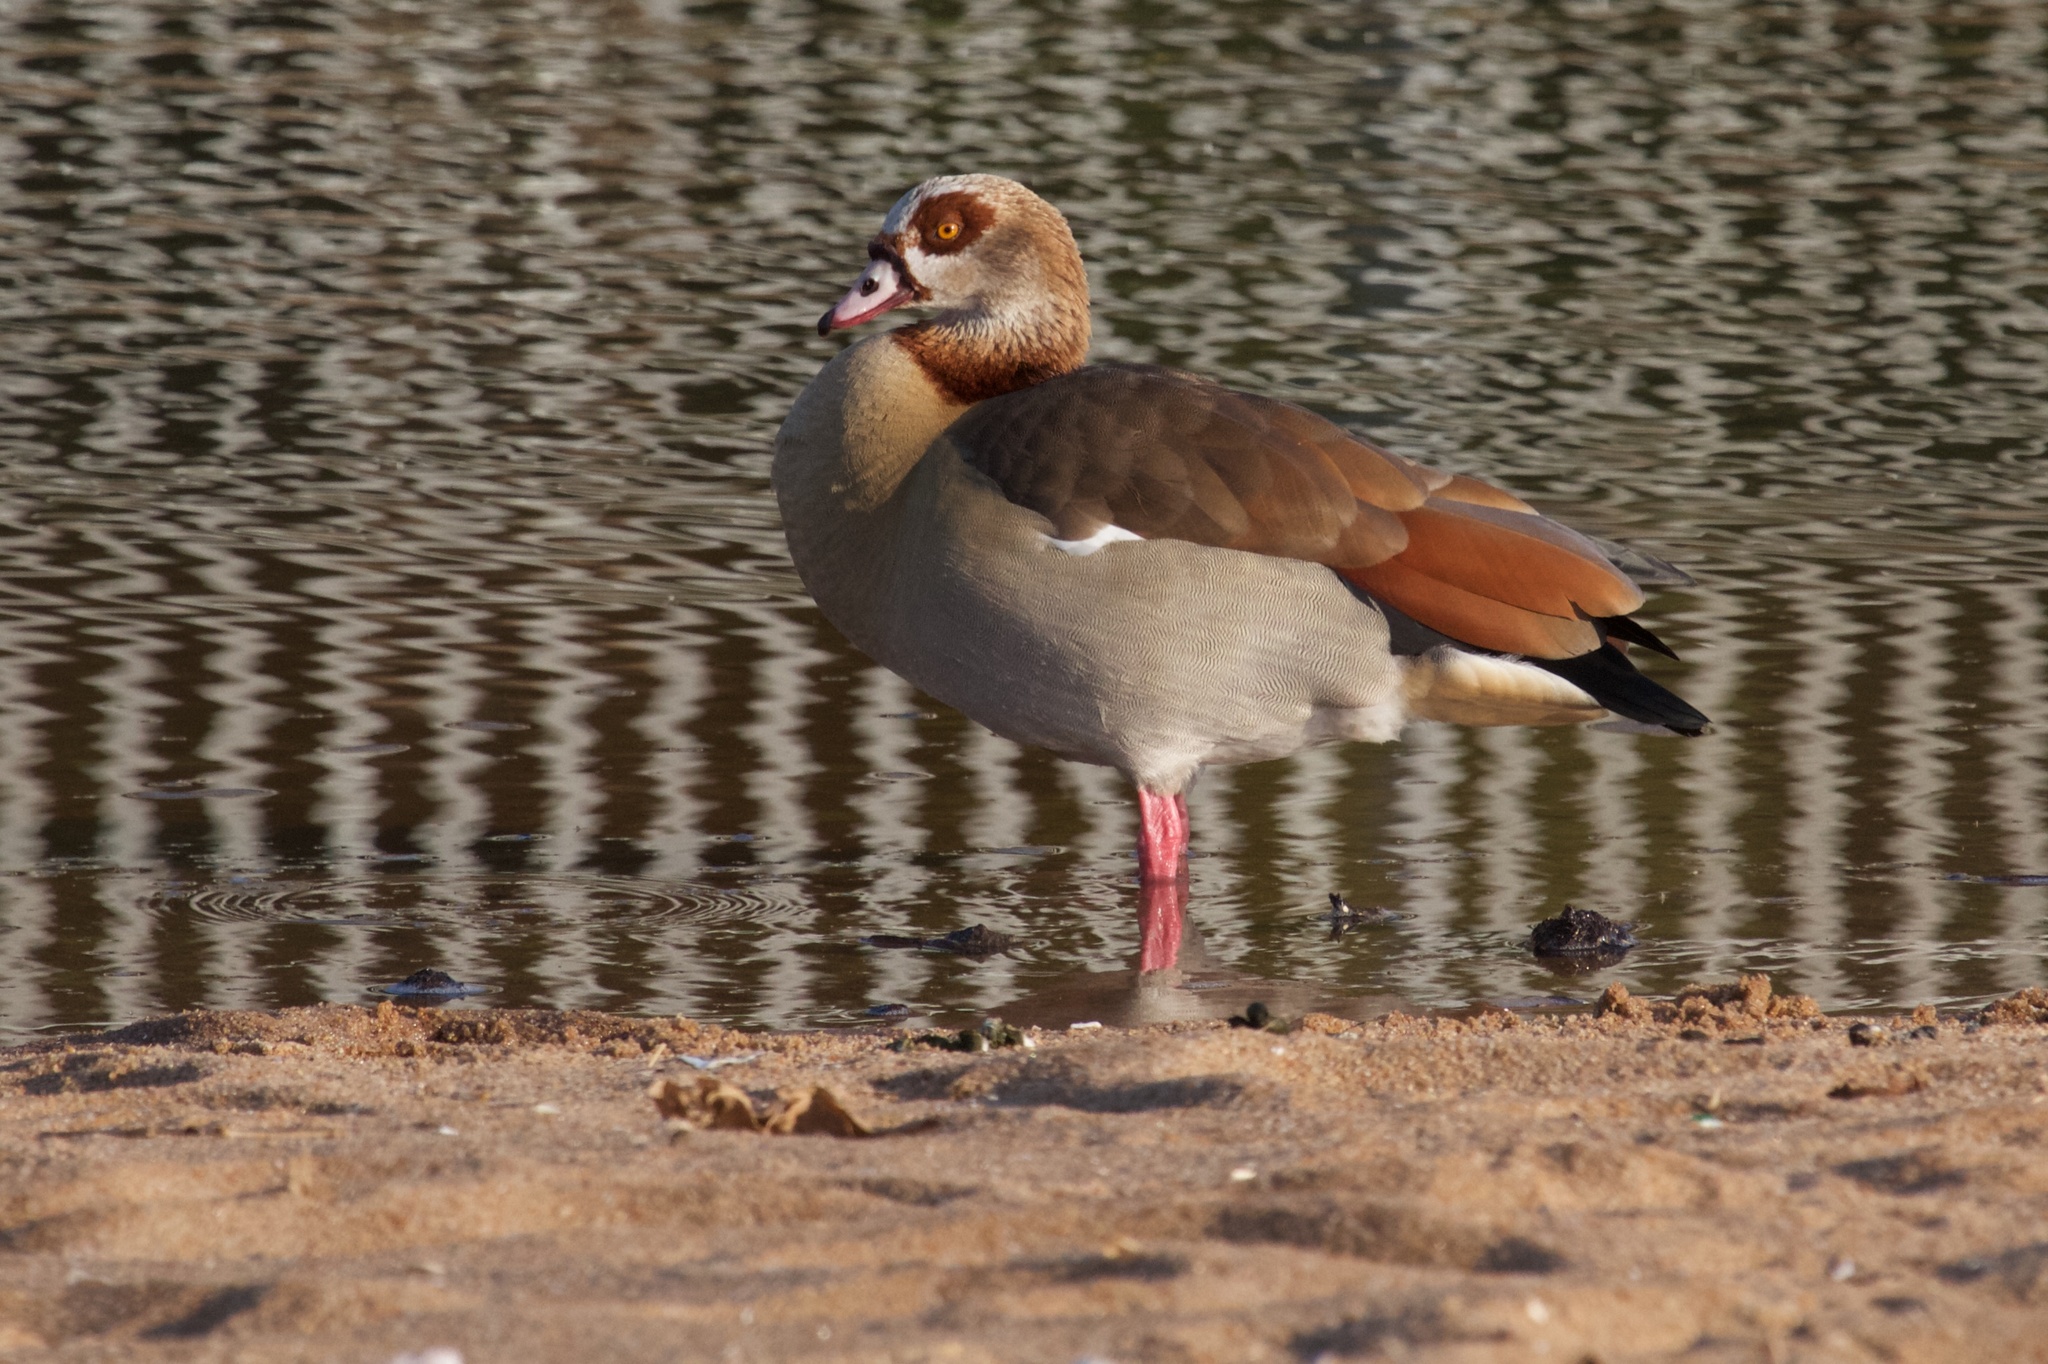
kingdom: Animalia
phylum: Chordata
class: Aves
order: Anseriformes
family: Anatidae
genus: Alopochen
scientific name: Alopochen aegyptiaca
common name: Egyptian goose
